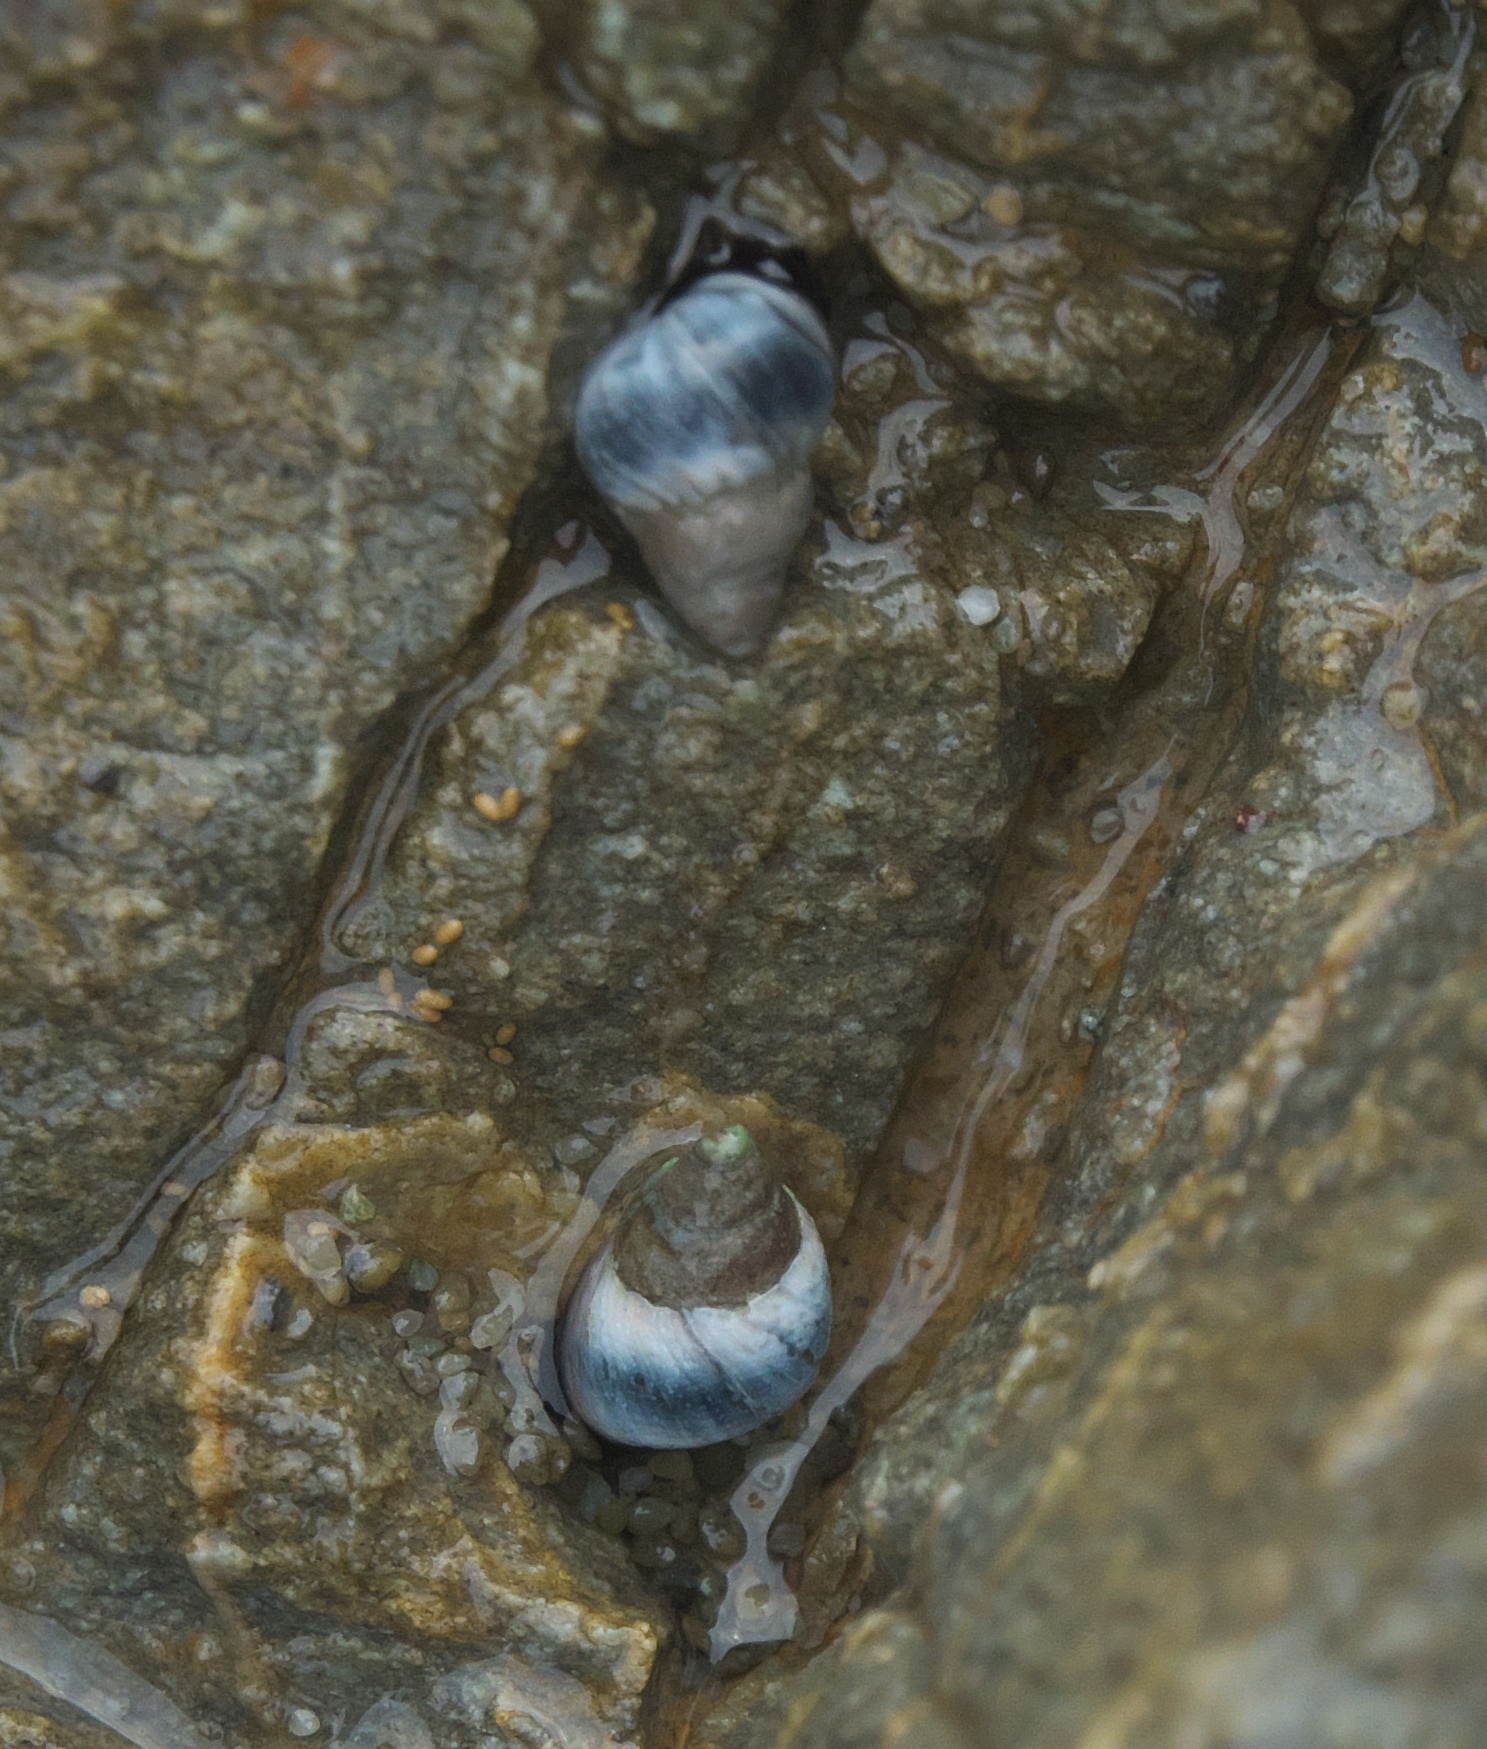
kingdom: Animalia
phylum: Mollusca
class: Gastropoda
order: Littorinimorpha
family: Littorinidae
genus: Austrolittorina
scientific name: Austrolittorina antipodum
